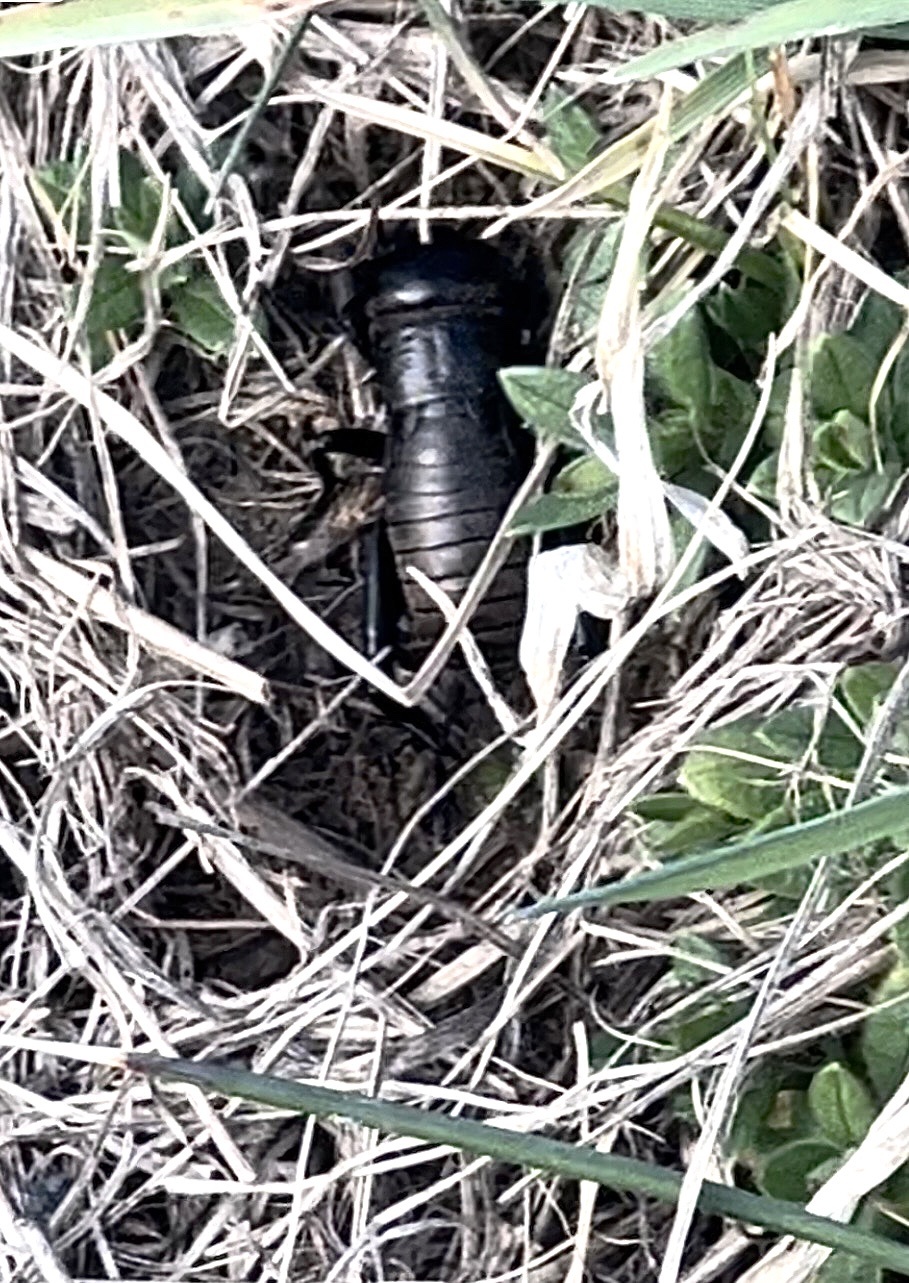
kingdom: Animalia
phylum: Arthropoda
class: Insecta
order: Orthoptera
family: Gryllidae
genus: Gryllus
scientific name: Gryllus campestris
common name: Field cricket
